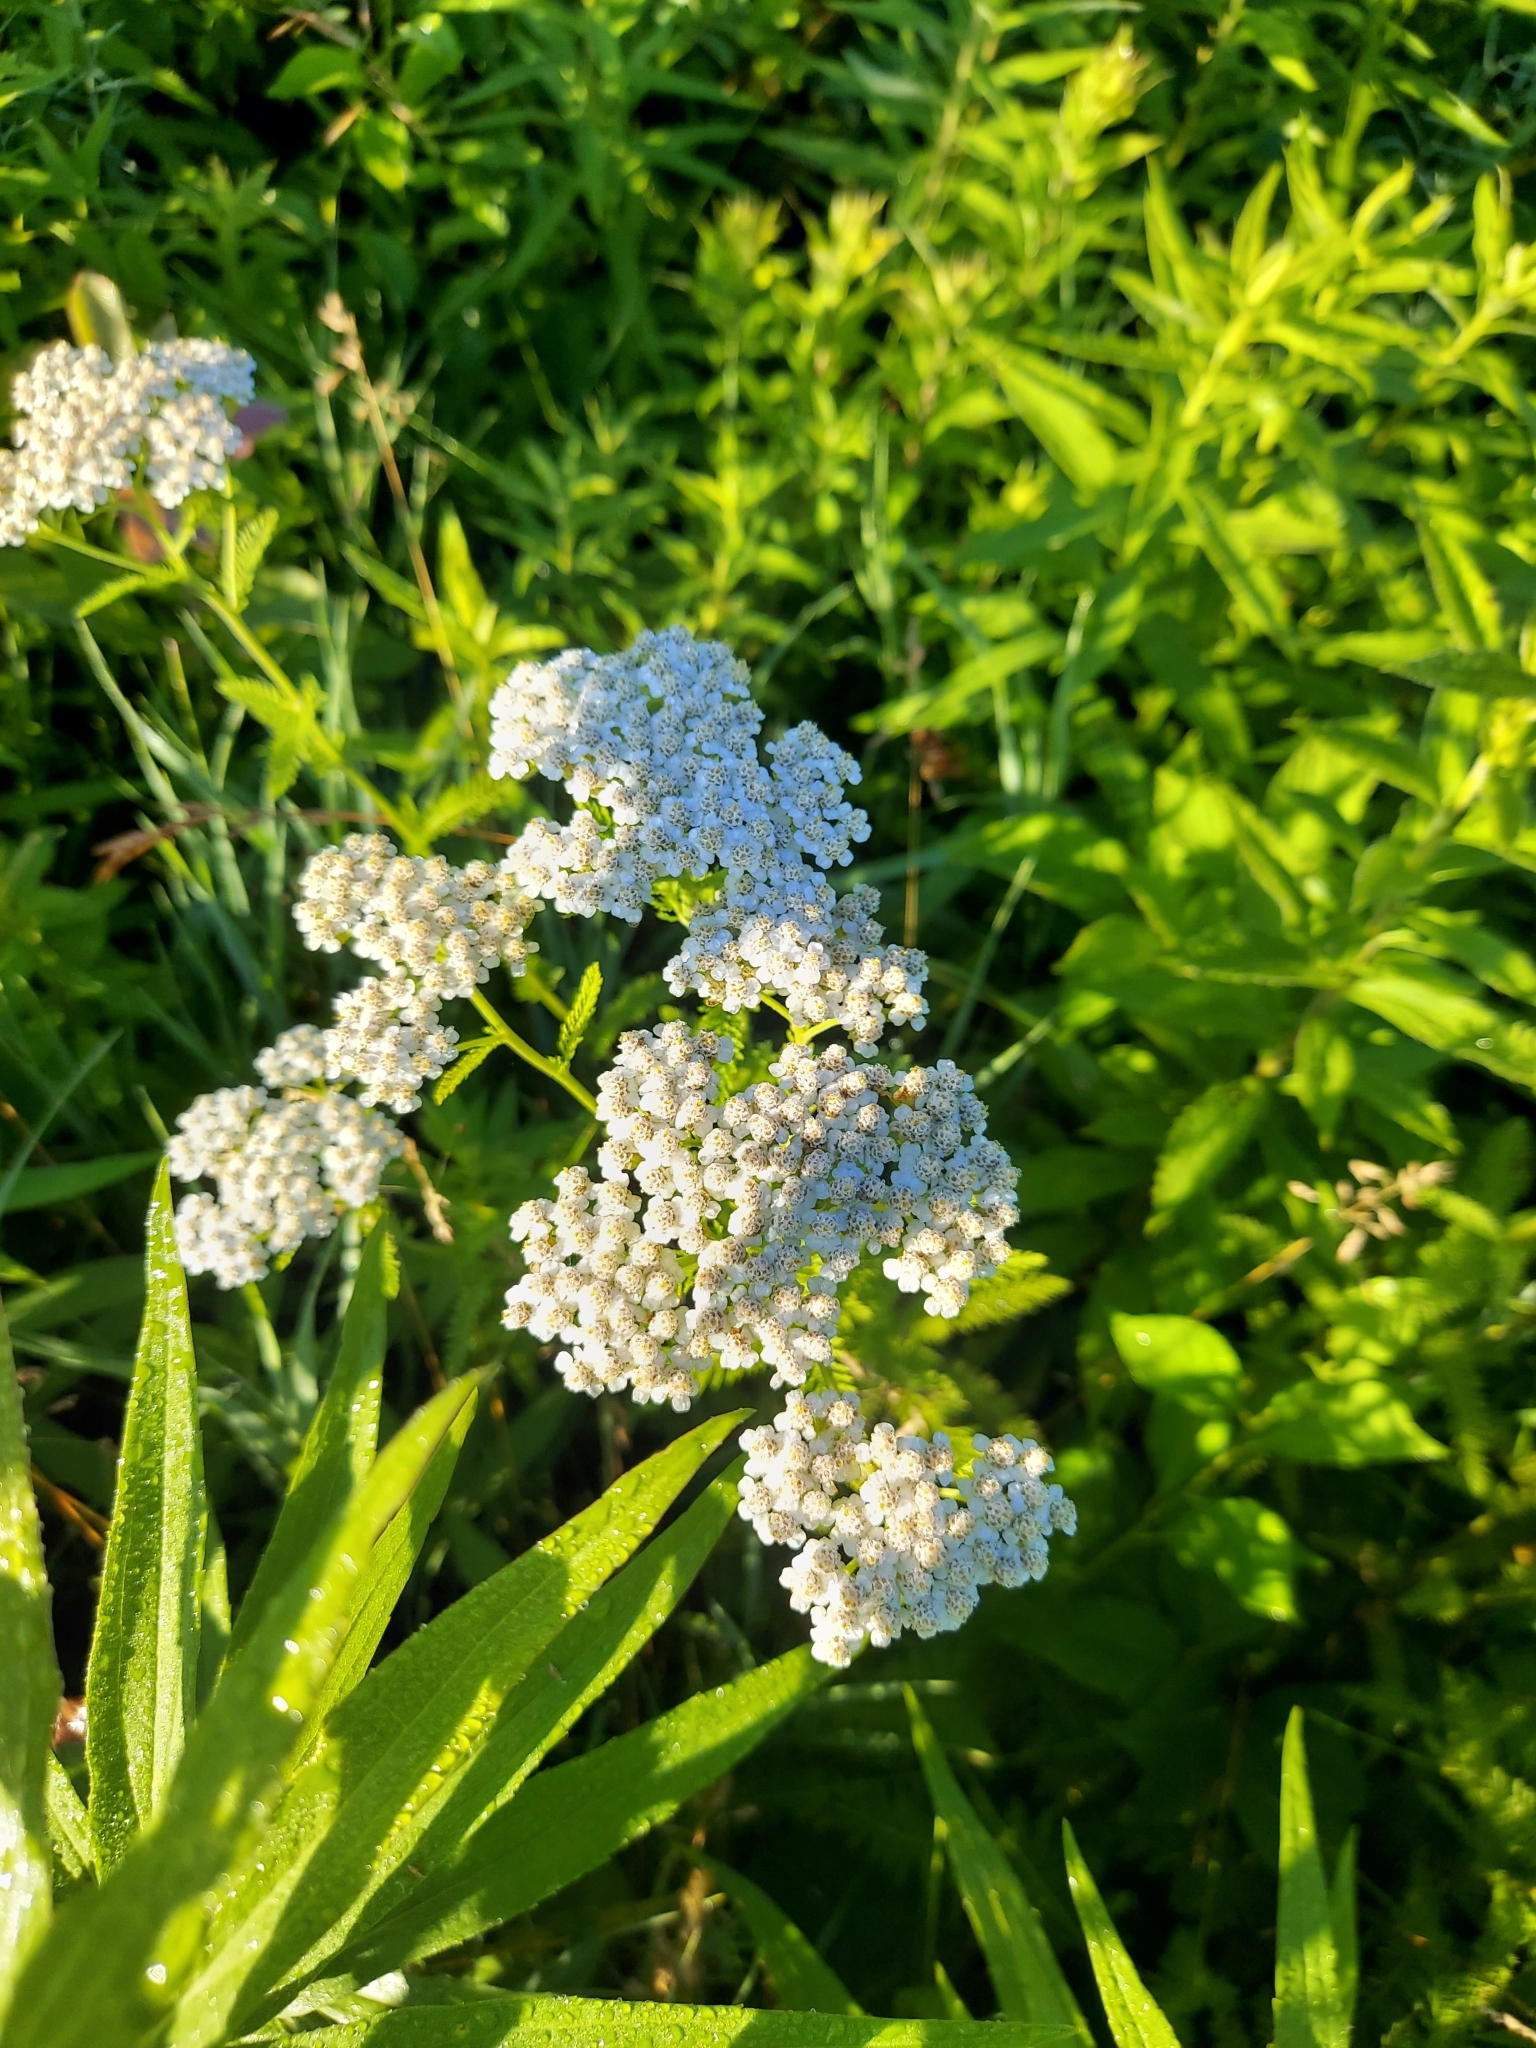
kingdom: Plantae
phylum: Tracheophyta
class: Magnoliopsida
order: Asterales
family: Asteraceae
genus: Achillea
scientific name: Achillea millefolium
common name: Yarrow
